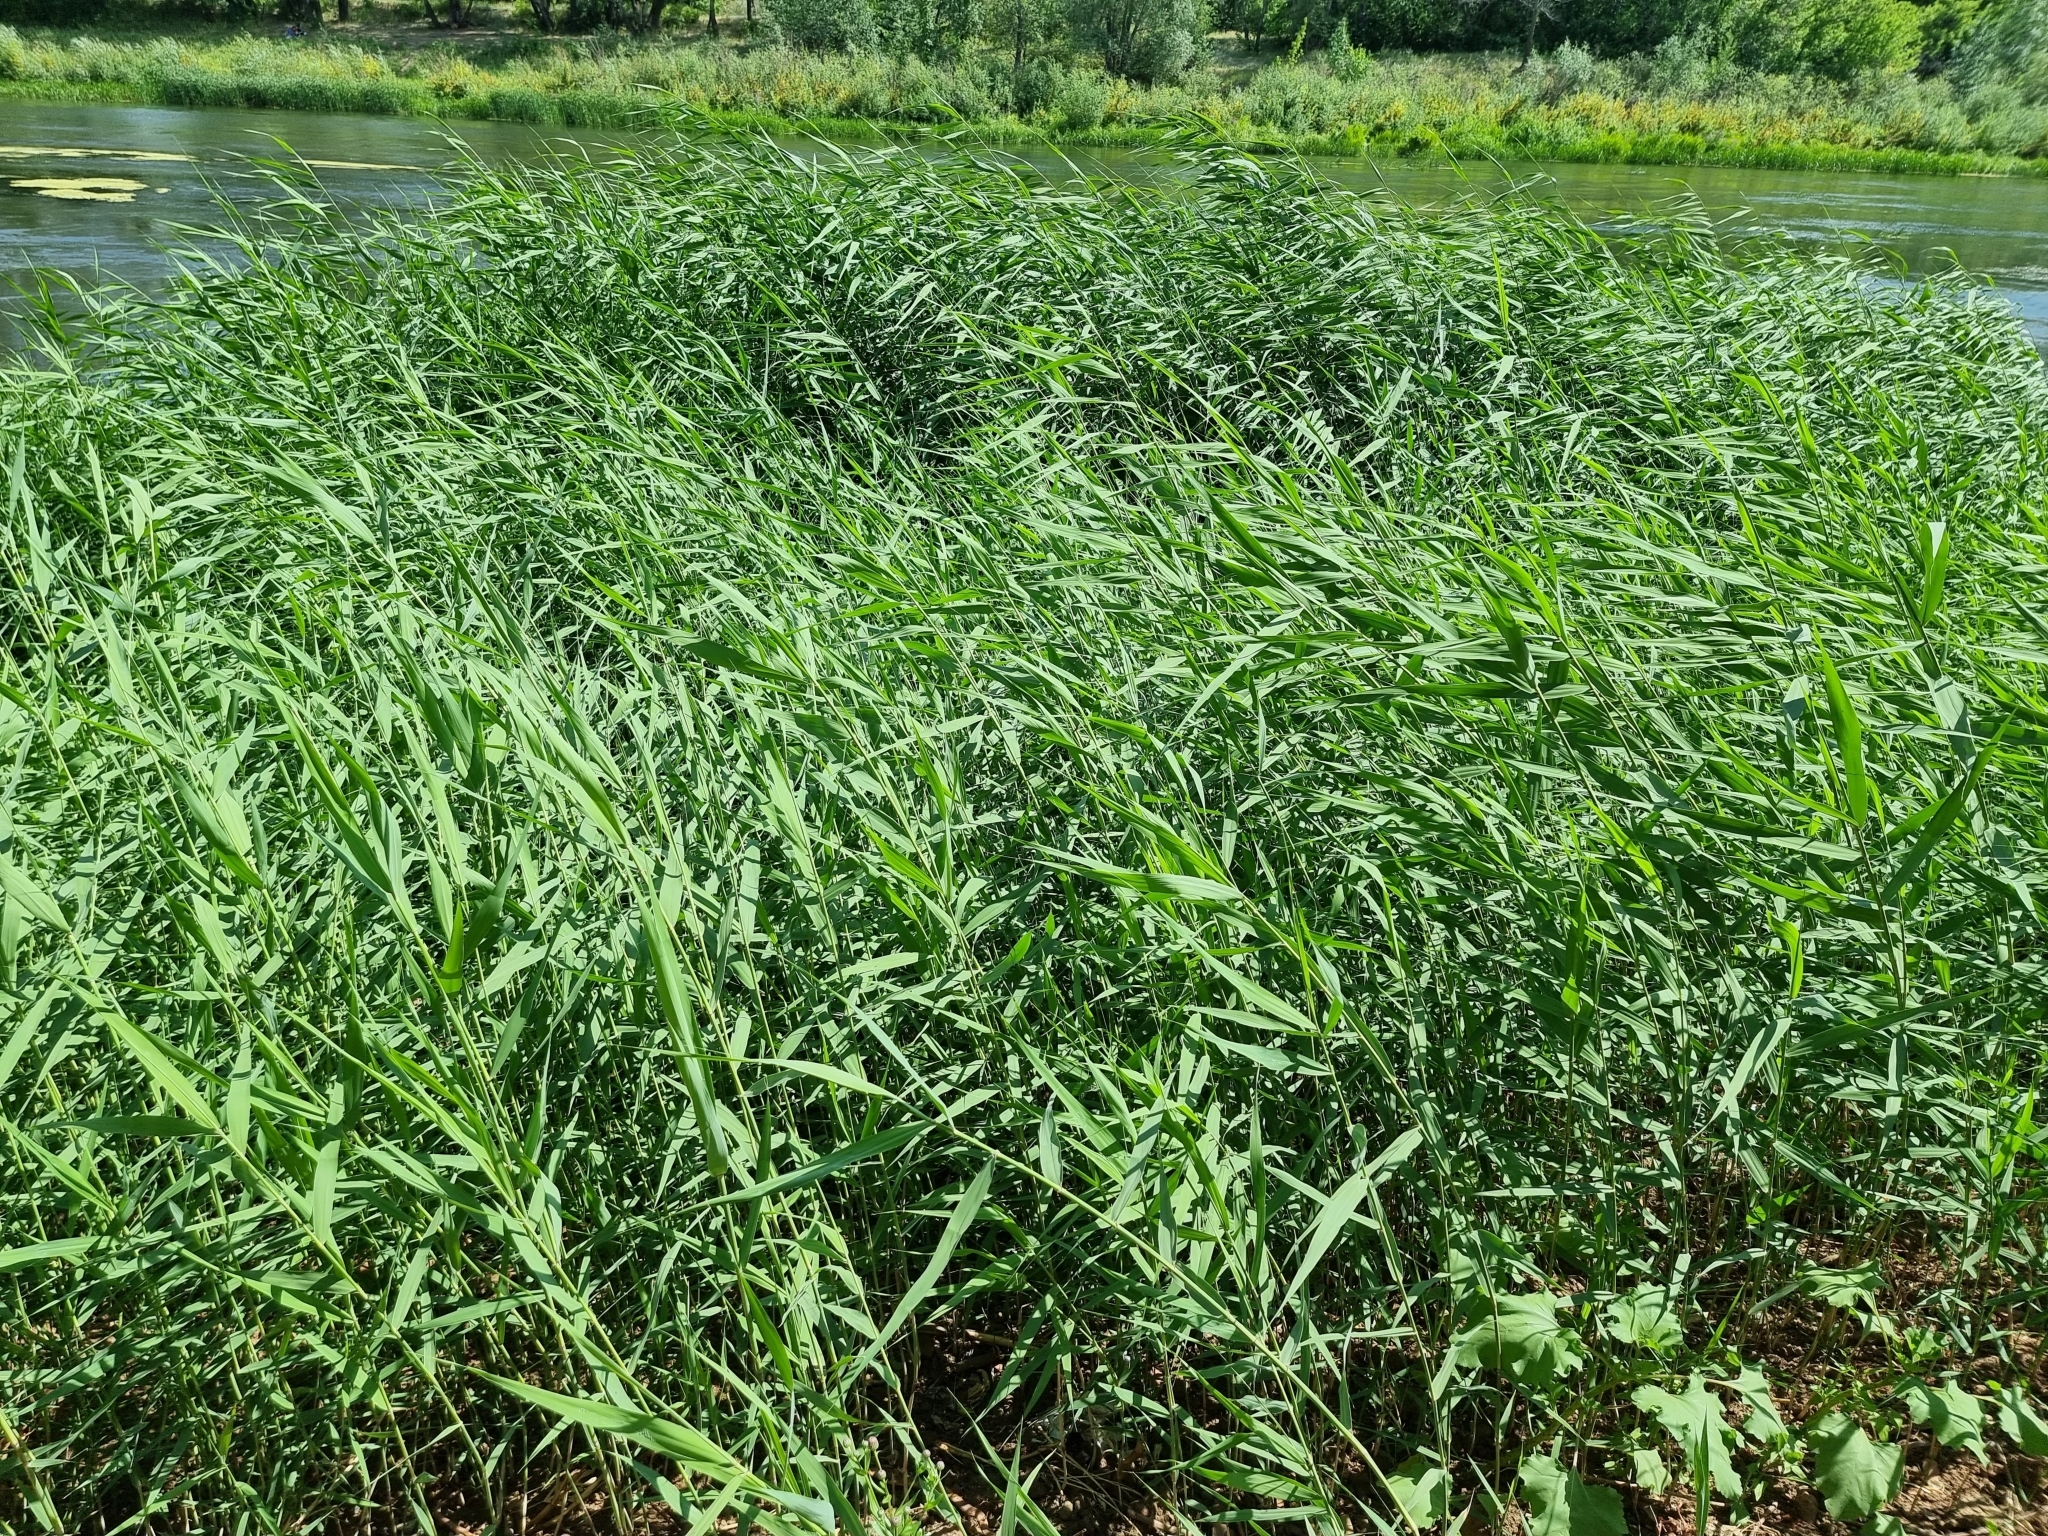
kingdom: Plantae
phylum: Tracheophyta
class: Liliopsida
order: Poales
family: Poaceae
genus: Phragmites
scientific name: Phragmites australis
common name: Common reed
